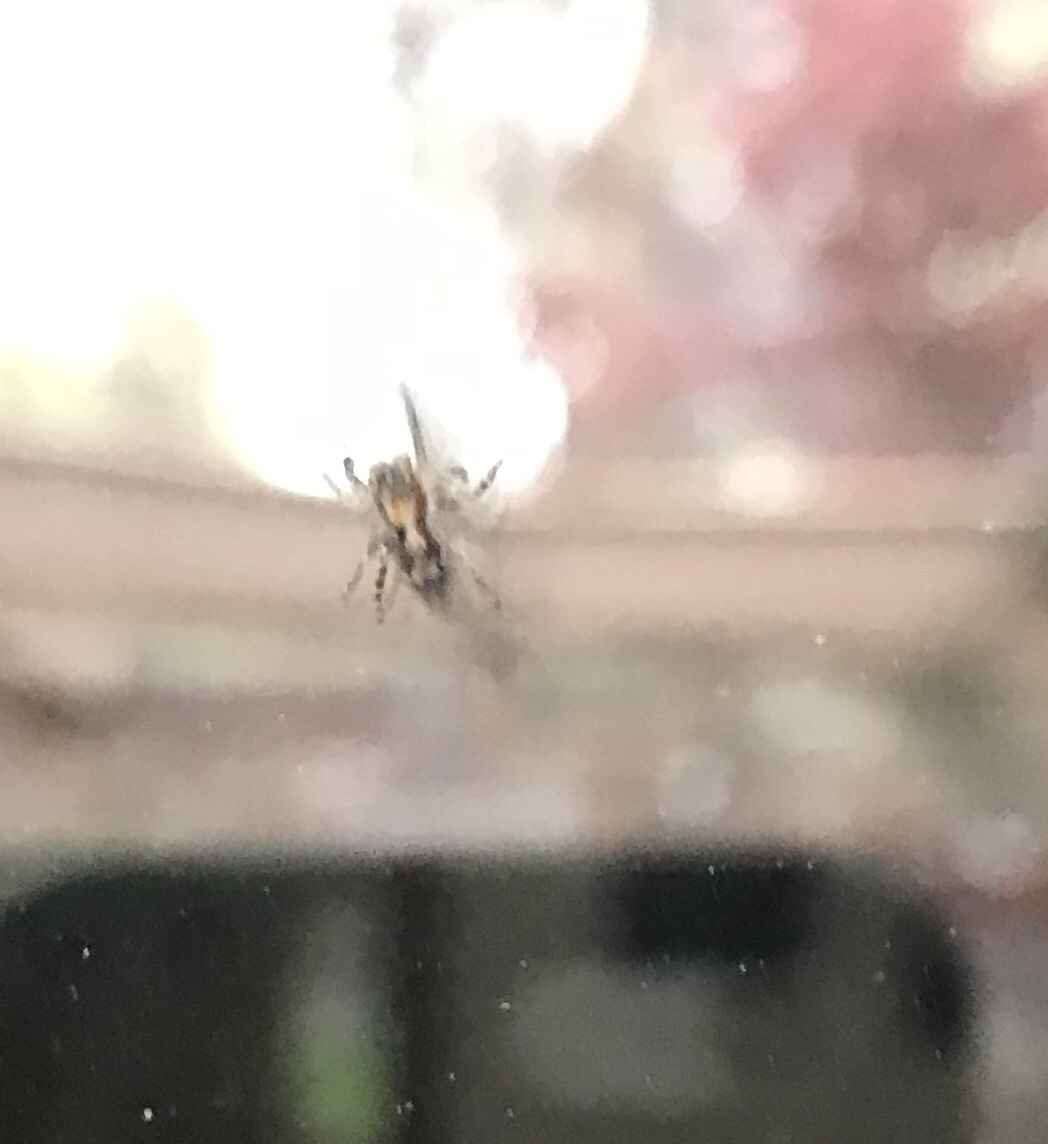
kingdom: Animalia
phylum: Arthropoda
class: Arachnida
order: Araneae
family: Salticidae
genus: Naphrys
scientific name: Naphrys pulex
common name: Flea jumping spider
